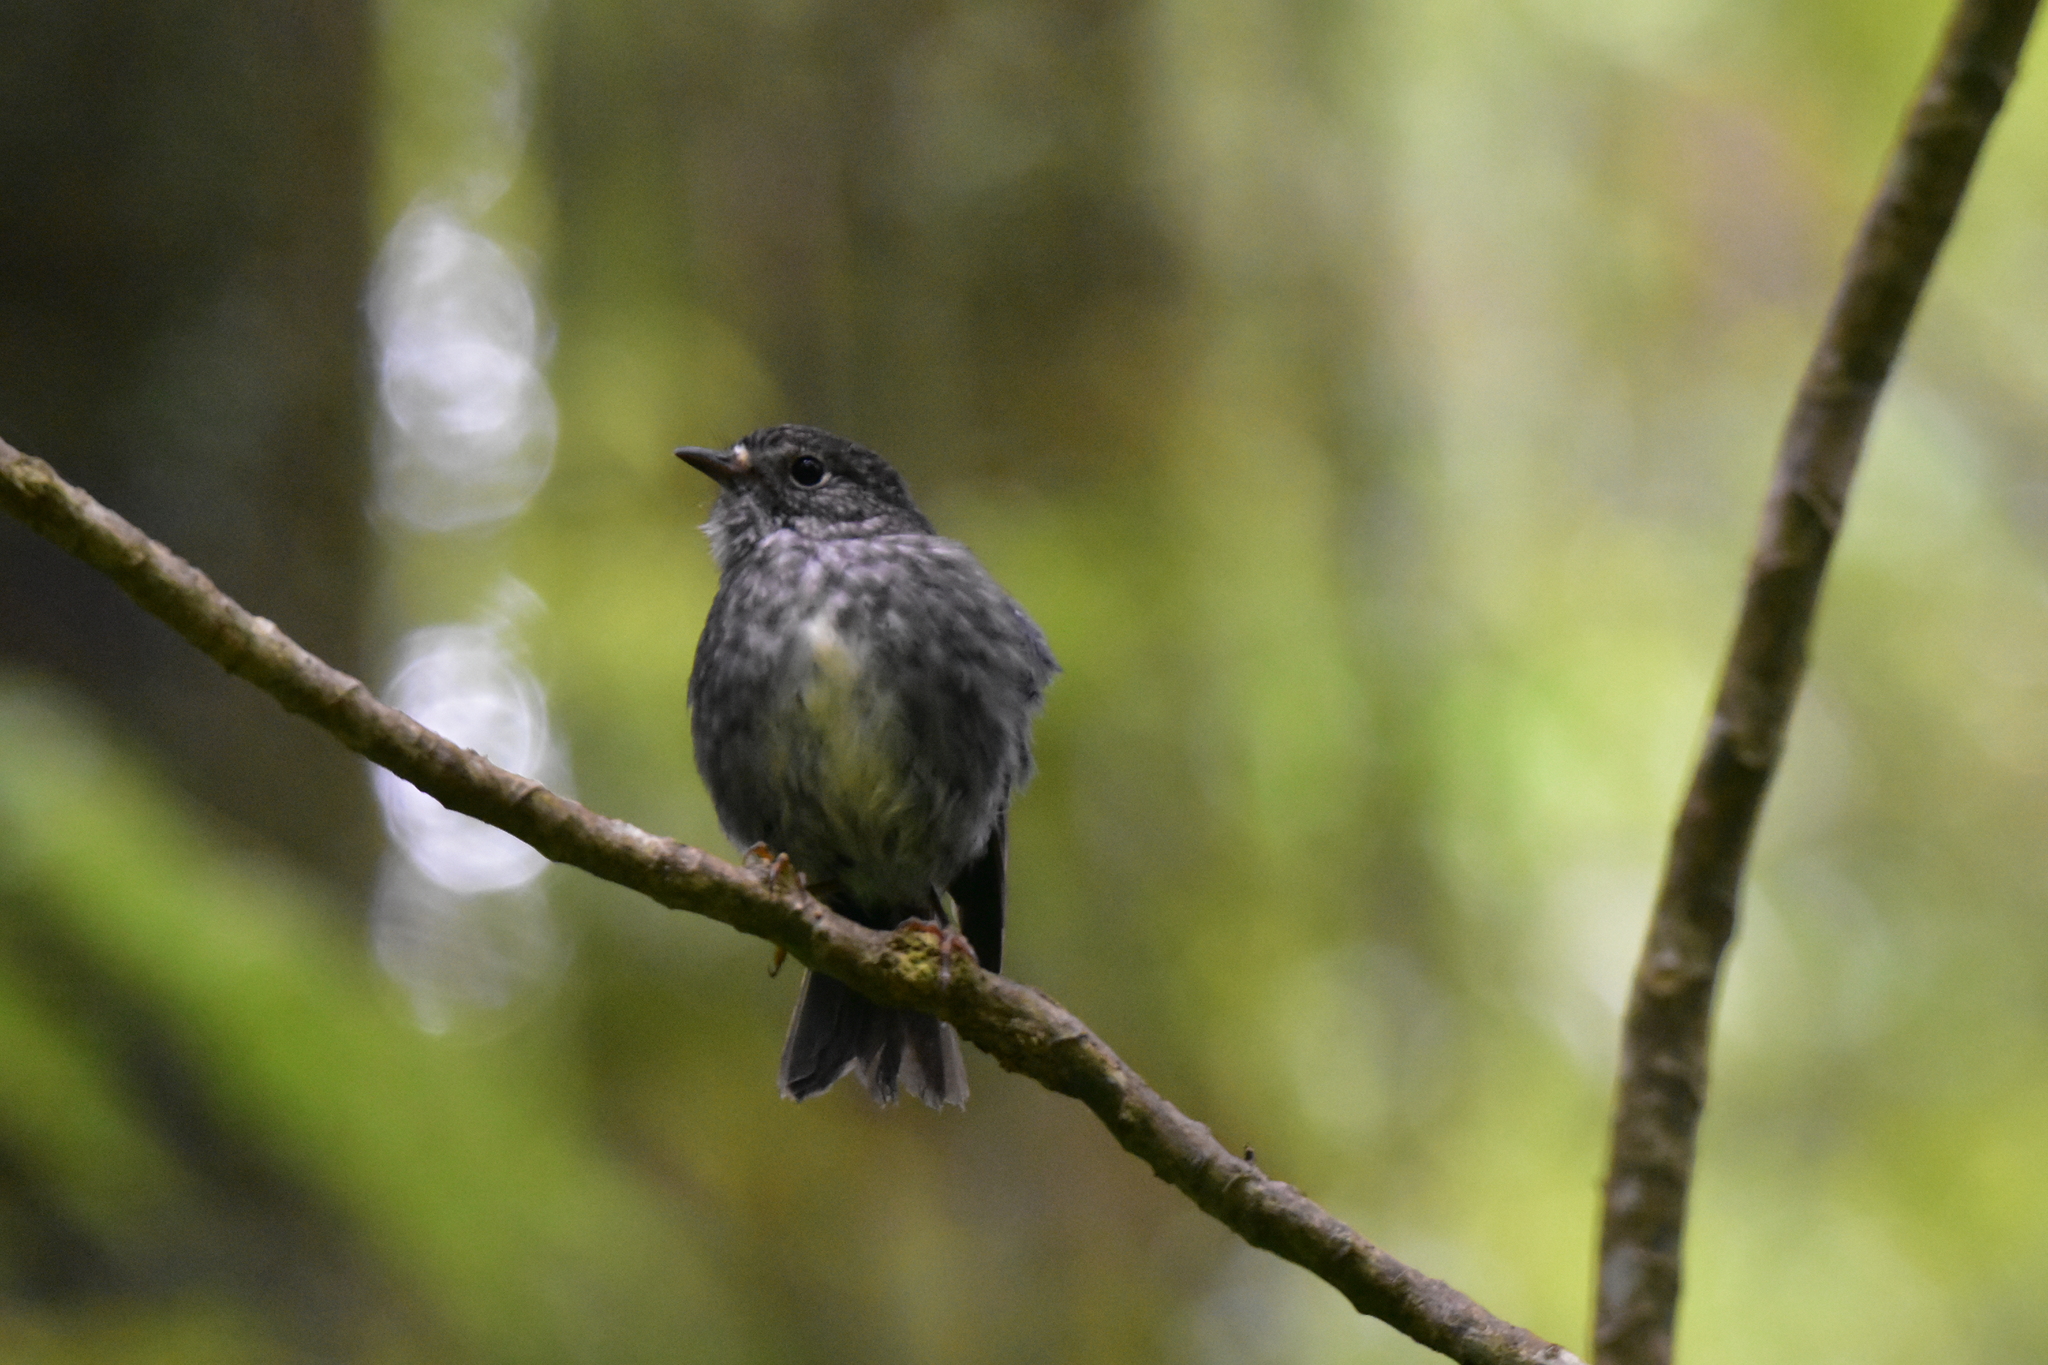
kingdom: Animalia
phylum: Chordata
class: Aves
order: Passeriformes
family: Petroicidae
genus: Petroica
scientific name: Petroica australis
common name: New zealand robin
